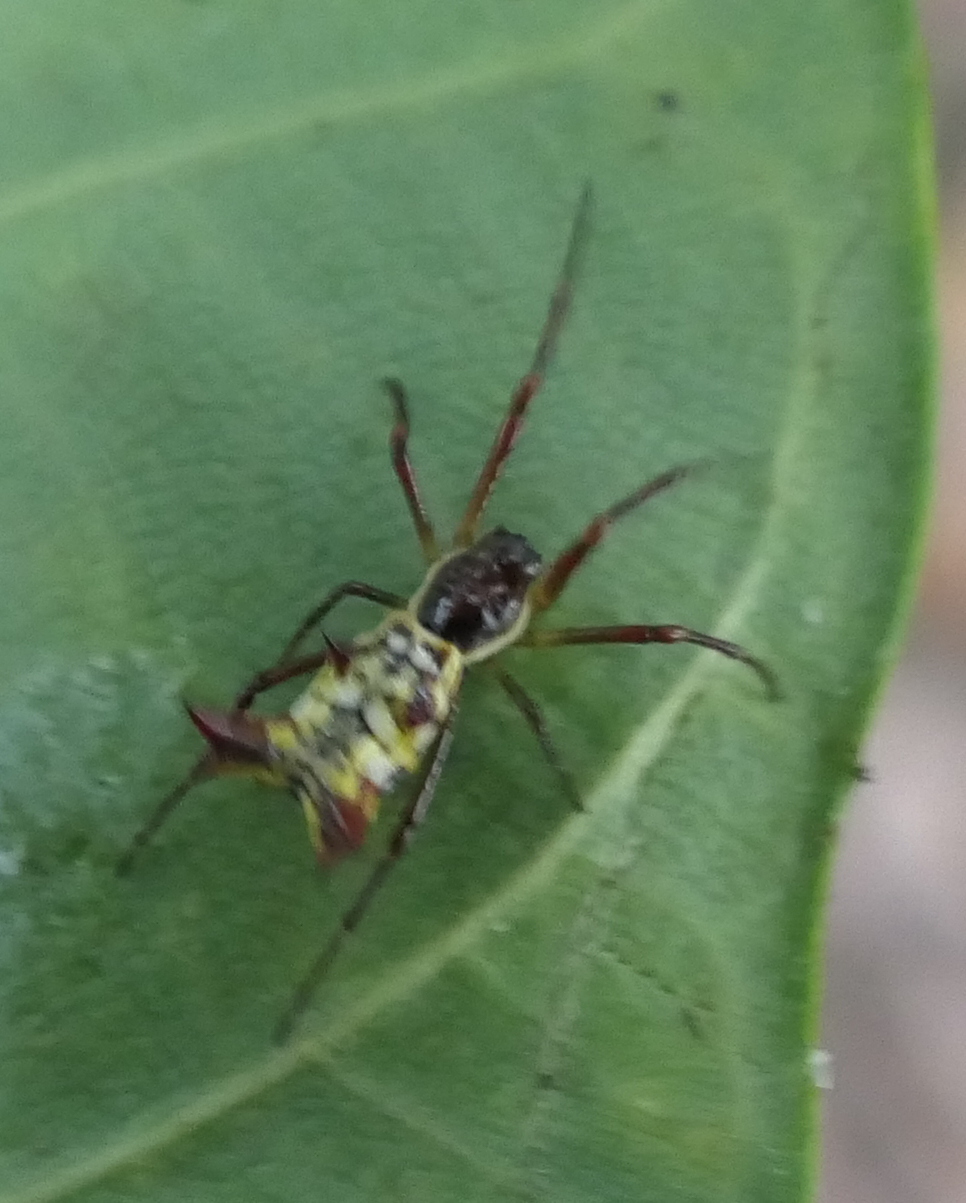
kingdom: Animalia
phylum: Arthropoda
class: Arachnida
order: Araneae
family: Araneidae
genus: Micrathena
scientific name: Micrathena fissispina
